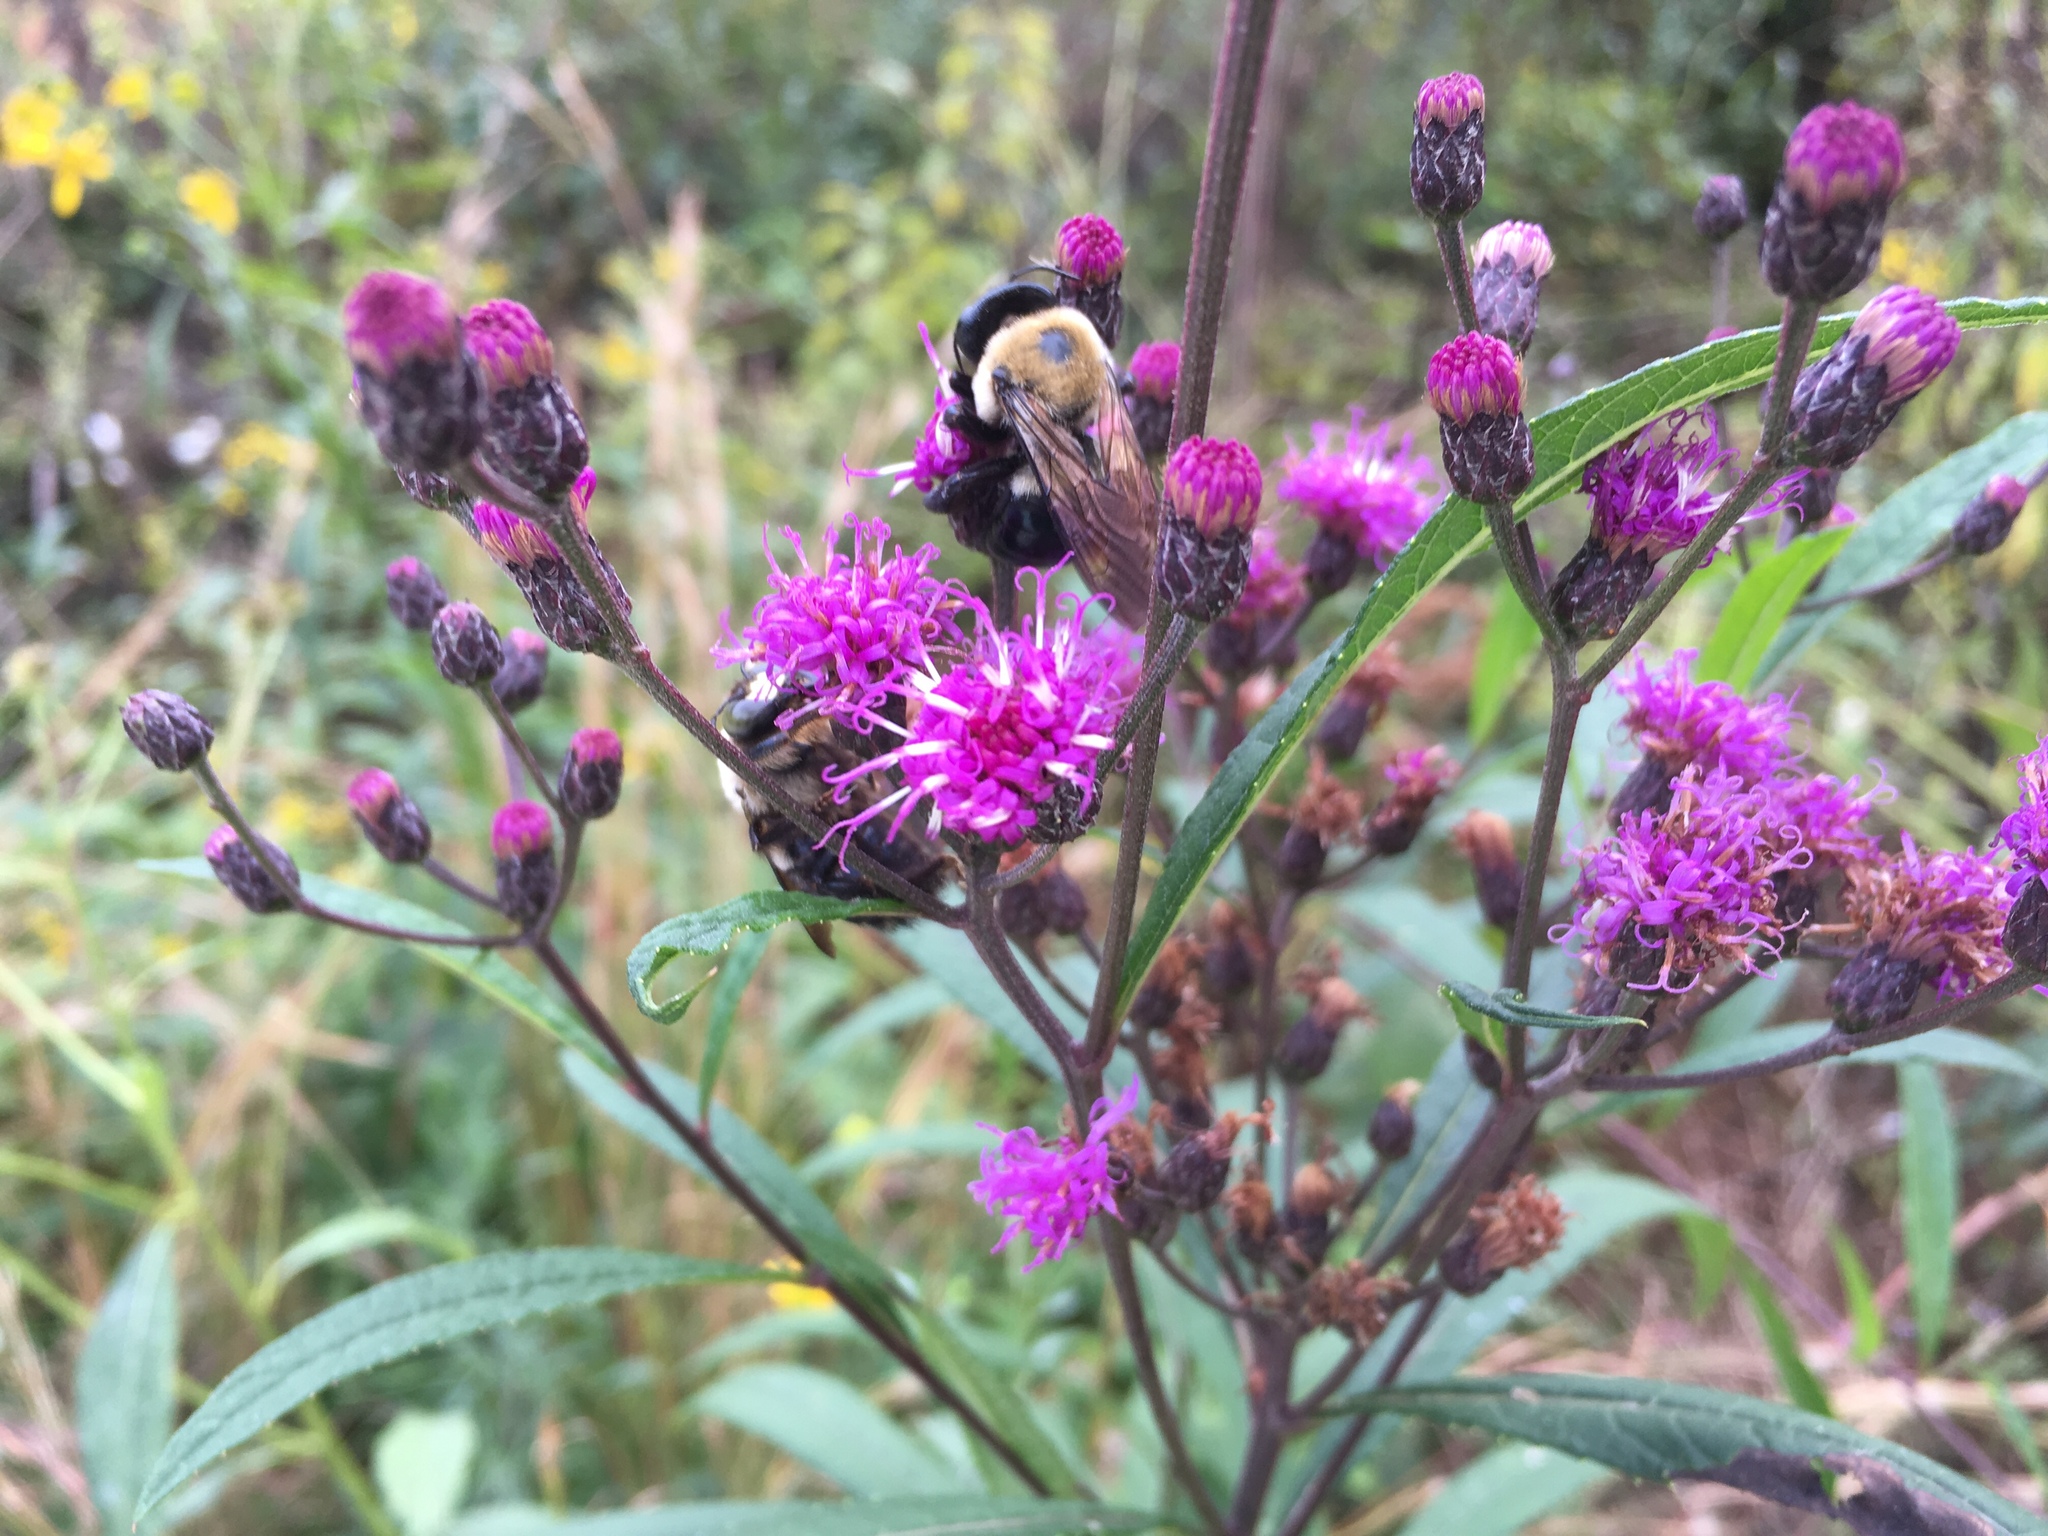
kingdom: Animalia
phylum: Arthropoda
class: Insecta
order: Hymenoptera
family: Apidae
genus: Xylocopa
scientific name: Xylocopa virginica
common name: Carpenter bee
